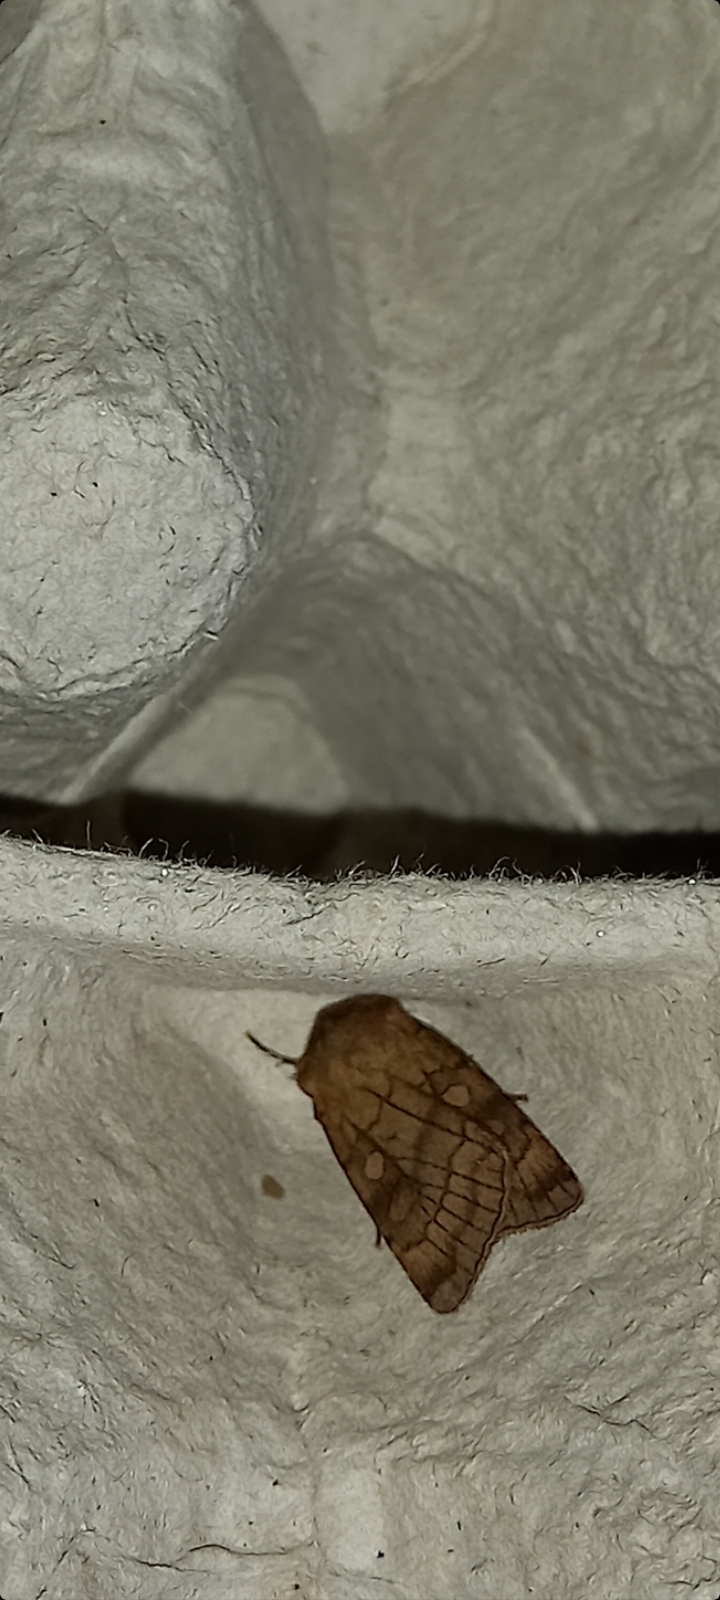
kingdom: Animalia
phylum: Arthropoda
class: Insecta
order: Lepidoptera
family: Noctuidae
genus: Xestia
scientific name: Xestia sexstrigata
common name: Six-striped rustic
